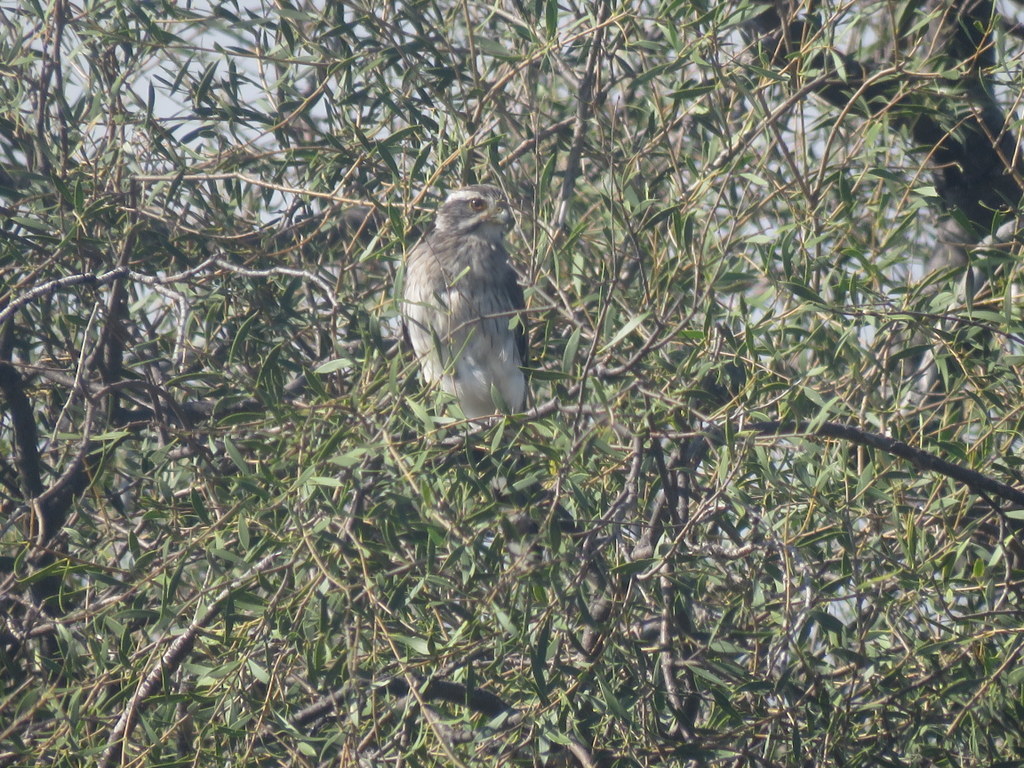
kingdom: Animalia
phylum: Chordata
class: Aves
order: Falconiformes
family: Falconidae
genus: Spiziapteryx
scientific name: Spiziapteryx circumcincta
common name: Spot-winged falconet
